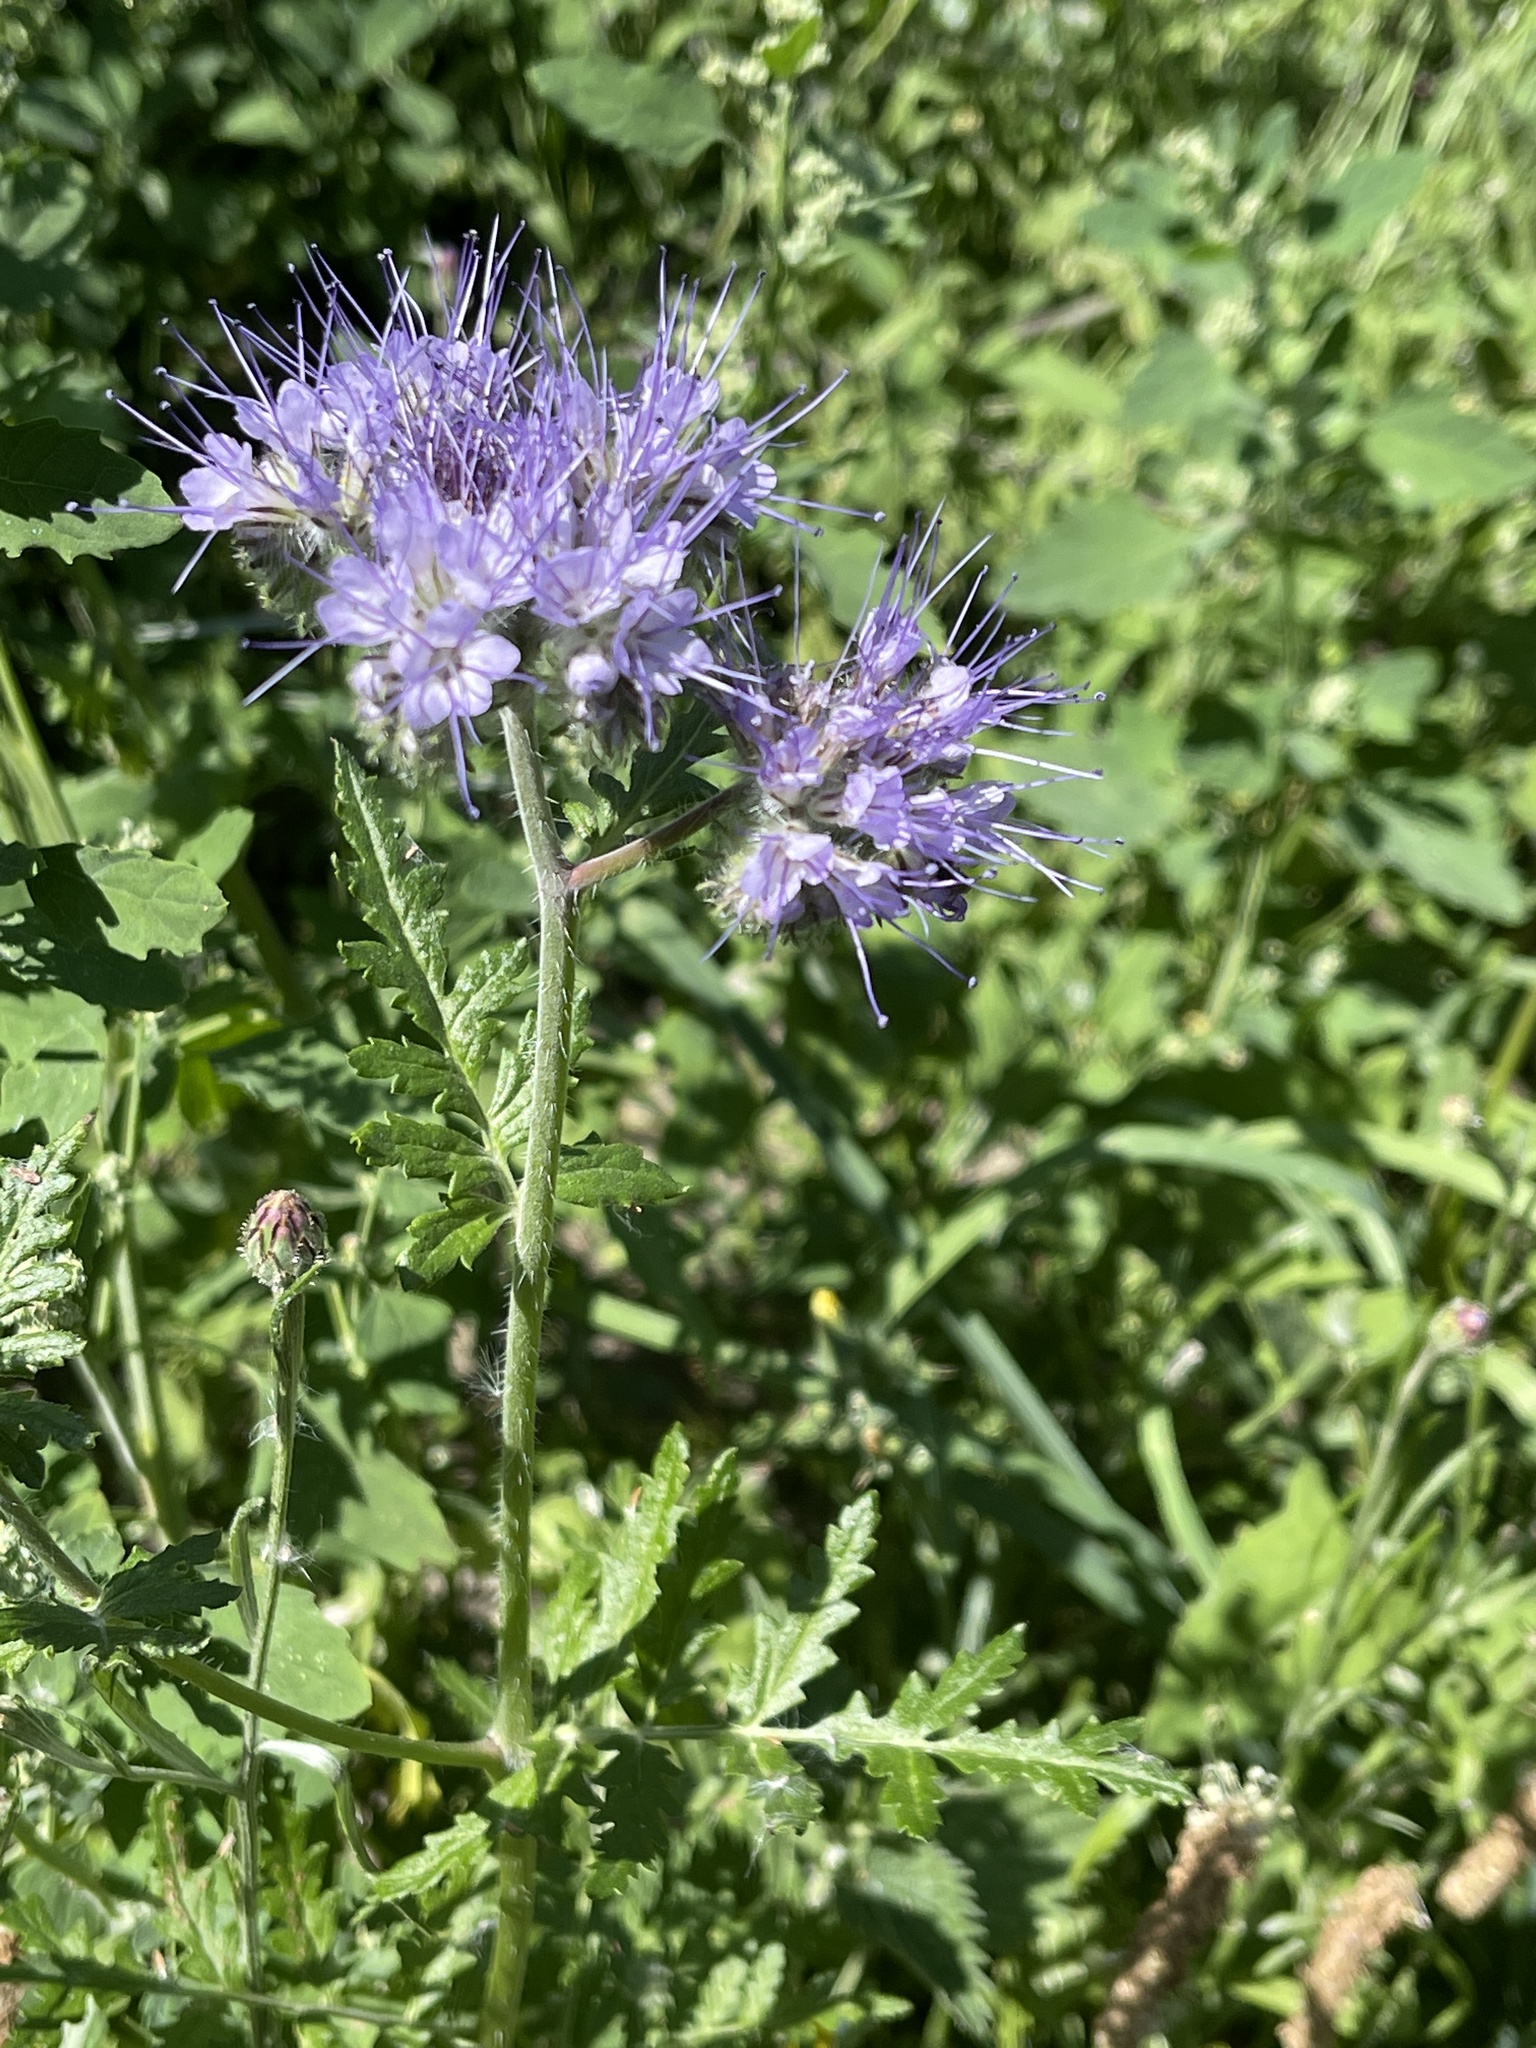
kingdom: Plantae
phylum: Tracheophyta
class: Magnoliopsida
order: Boraginales
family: Hydrophyllaceae
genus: Phacelia
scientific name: Phacelia tanacetifolia
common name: Phacelia
